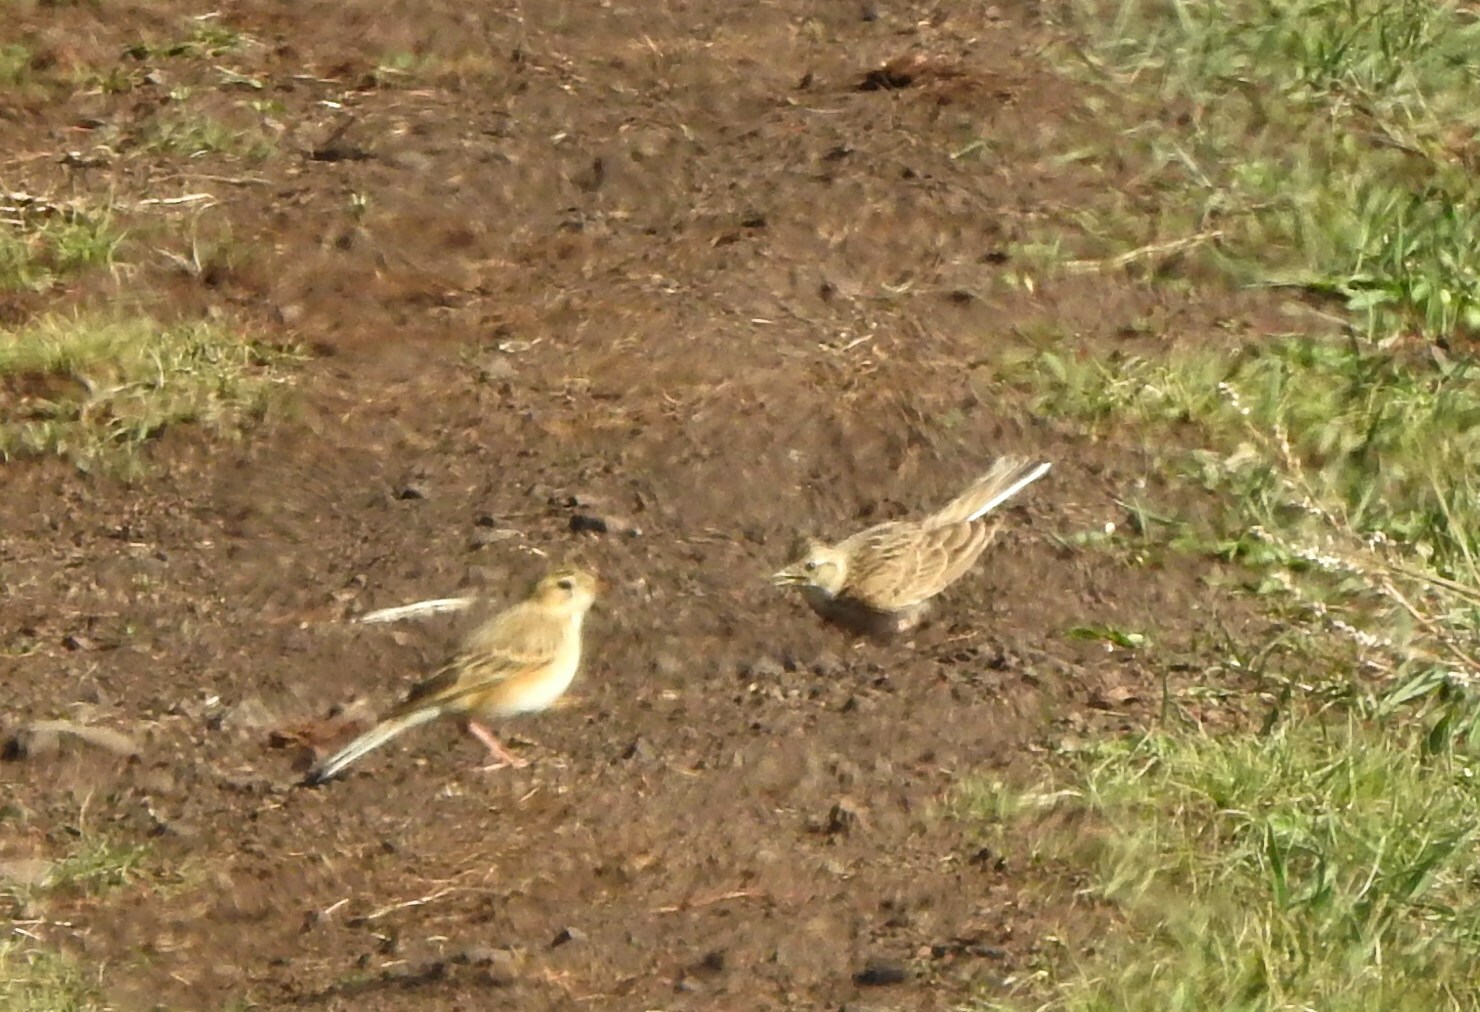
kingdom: Animalia
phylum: Chordata
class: Aves
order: Passeriformes
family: Alaudidae
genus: Alauda
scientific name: Alauda arvensis
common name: Eurasian skylark
